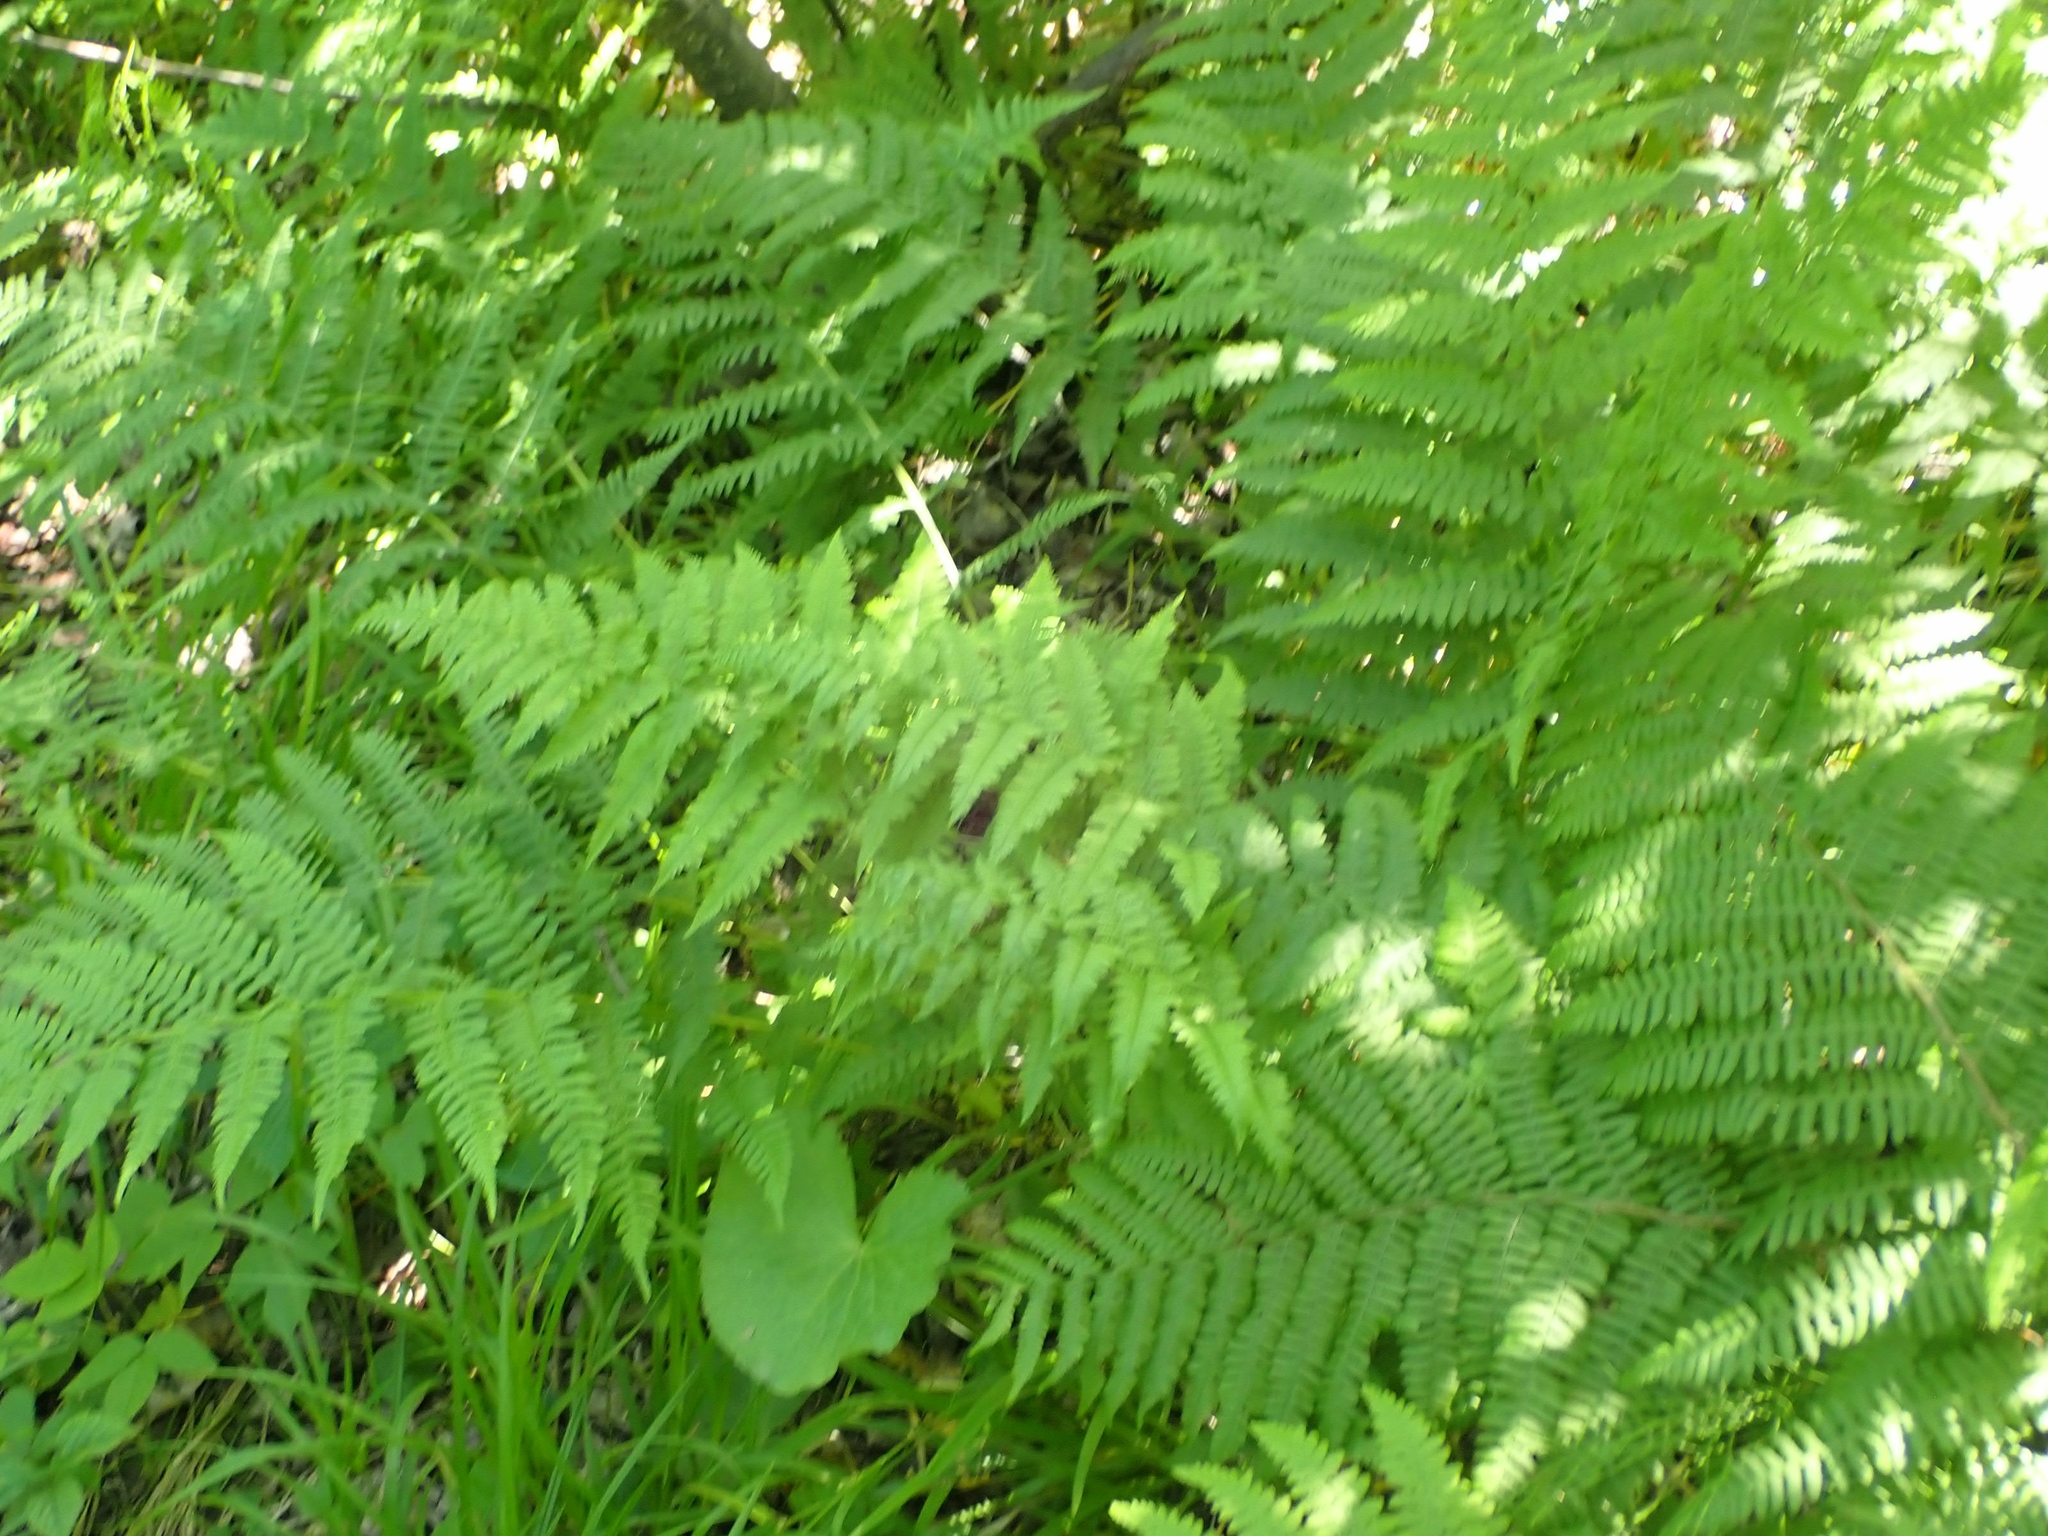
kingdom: Plantae
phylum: Tracheophyta
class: Polypodiopsida
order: Polypodiales
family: Athyriaceae
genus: Athyrium
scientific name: Athyrium angustum
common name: Northern lady fern
